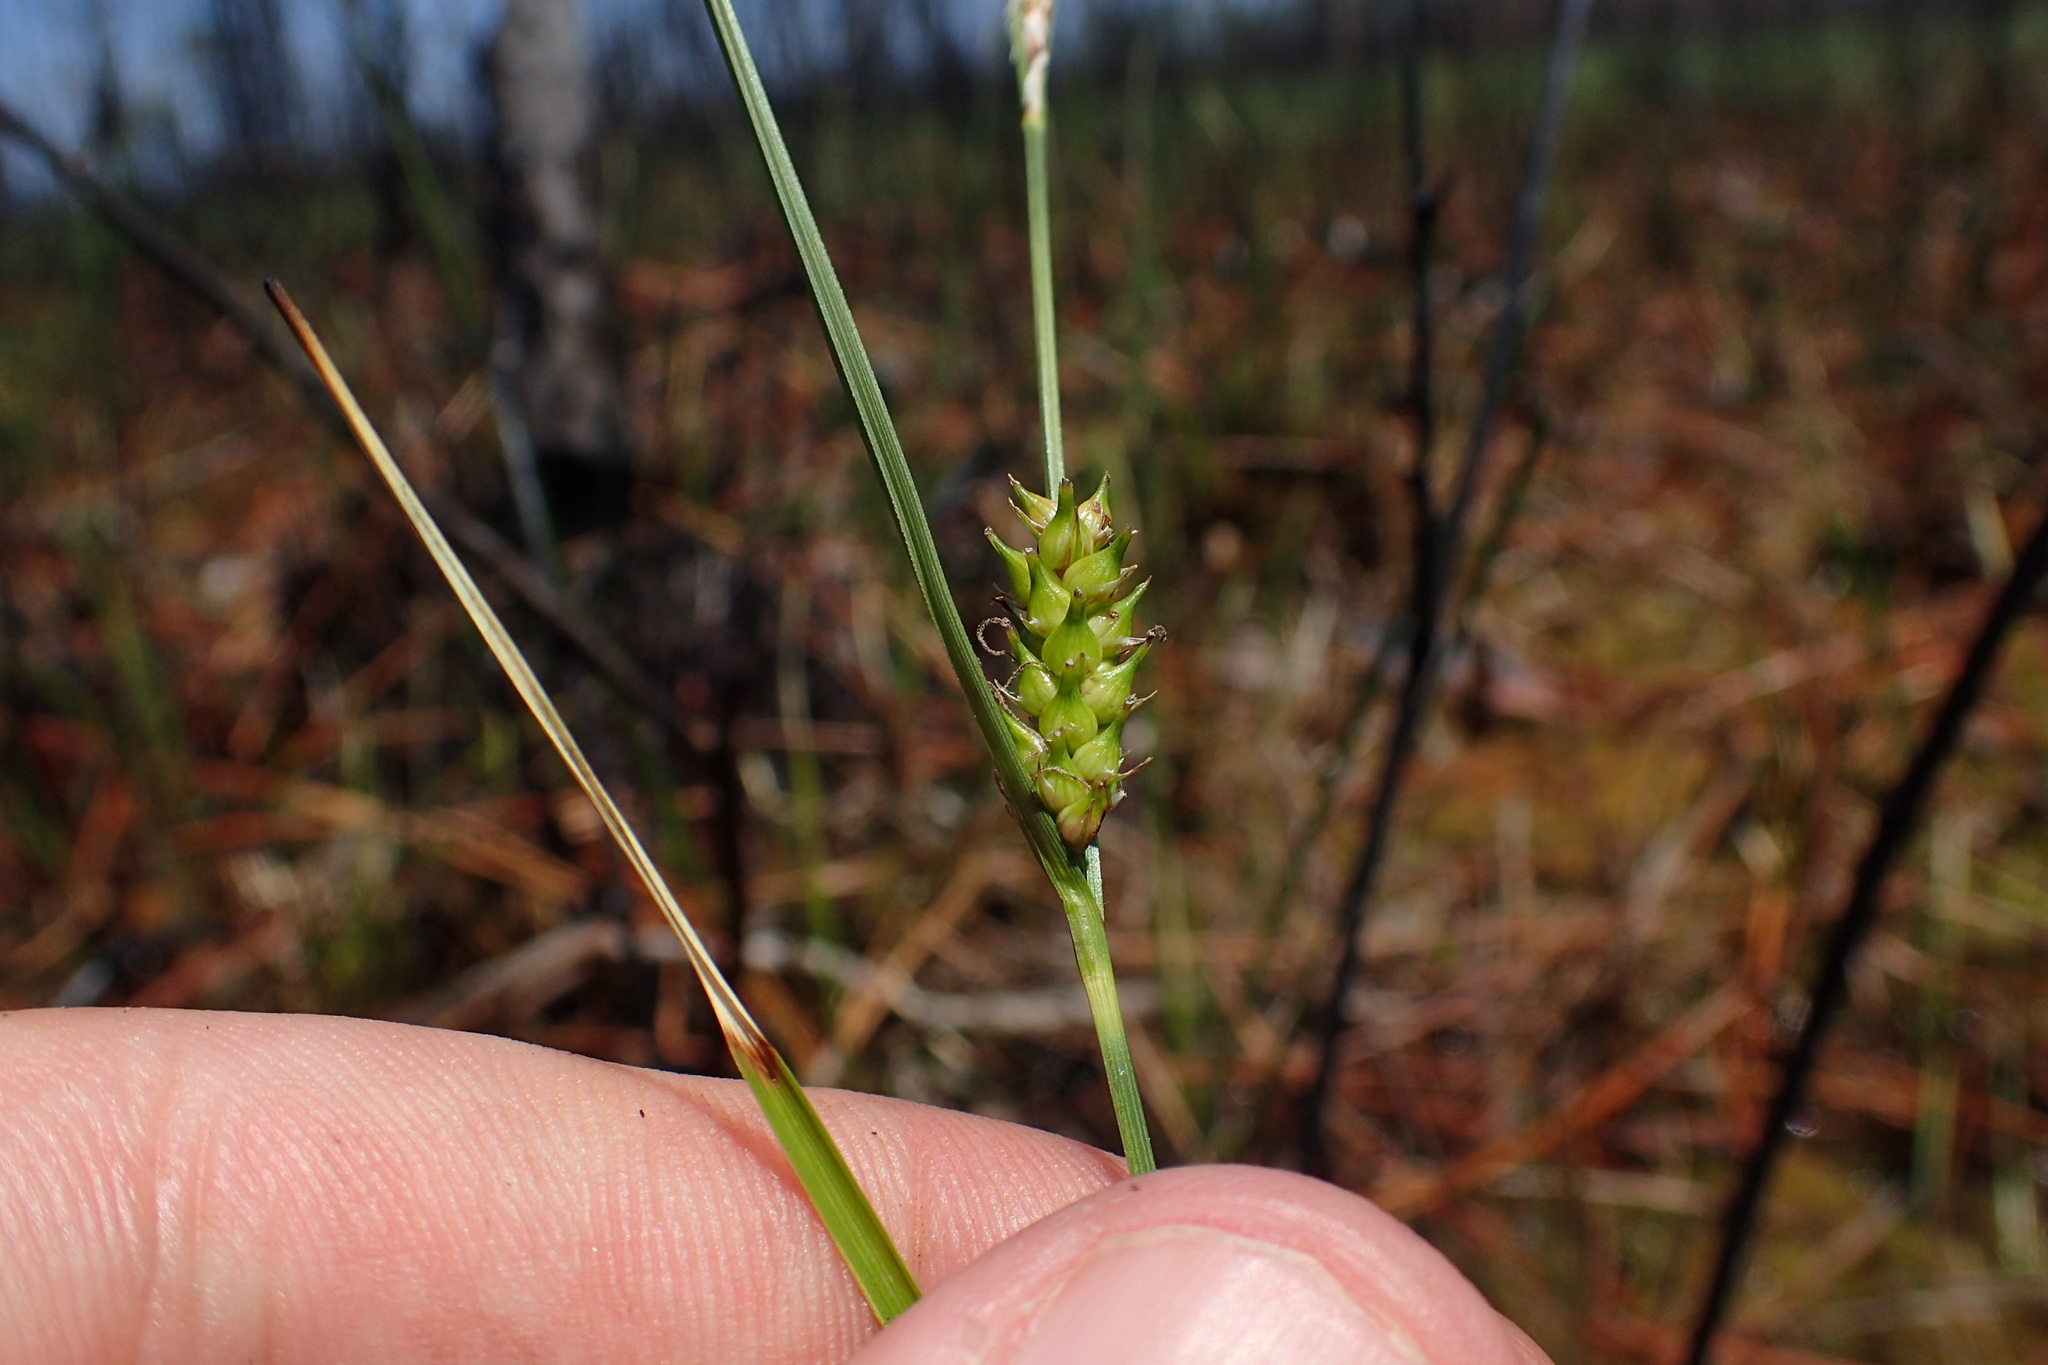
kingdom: Plantae
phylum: Tracheophyta
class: Liliopsida
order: Poales
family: Cyperaceae
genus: Carex
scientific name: Carex striata
